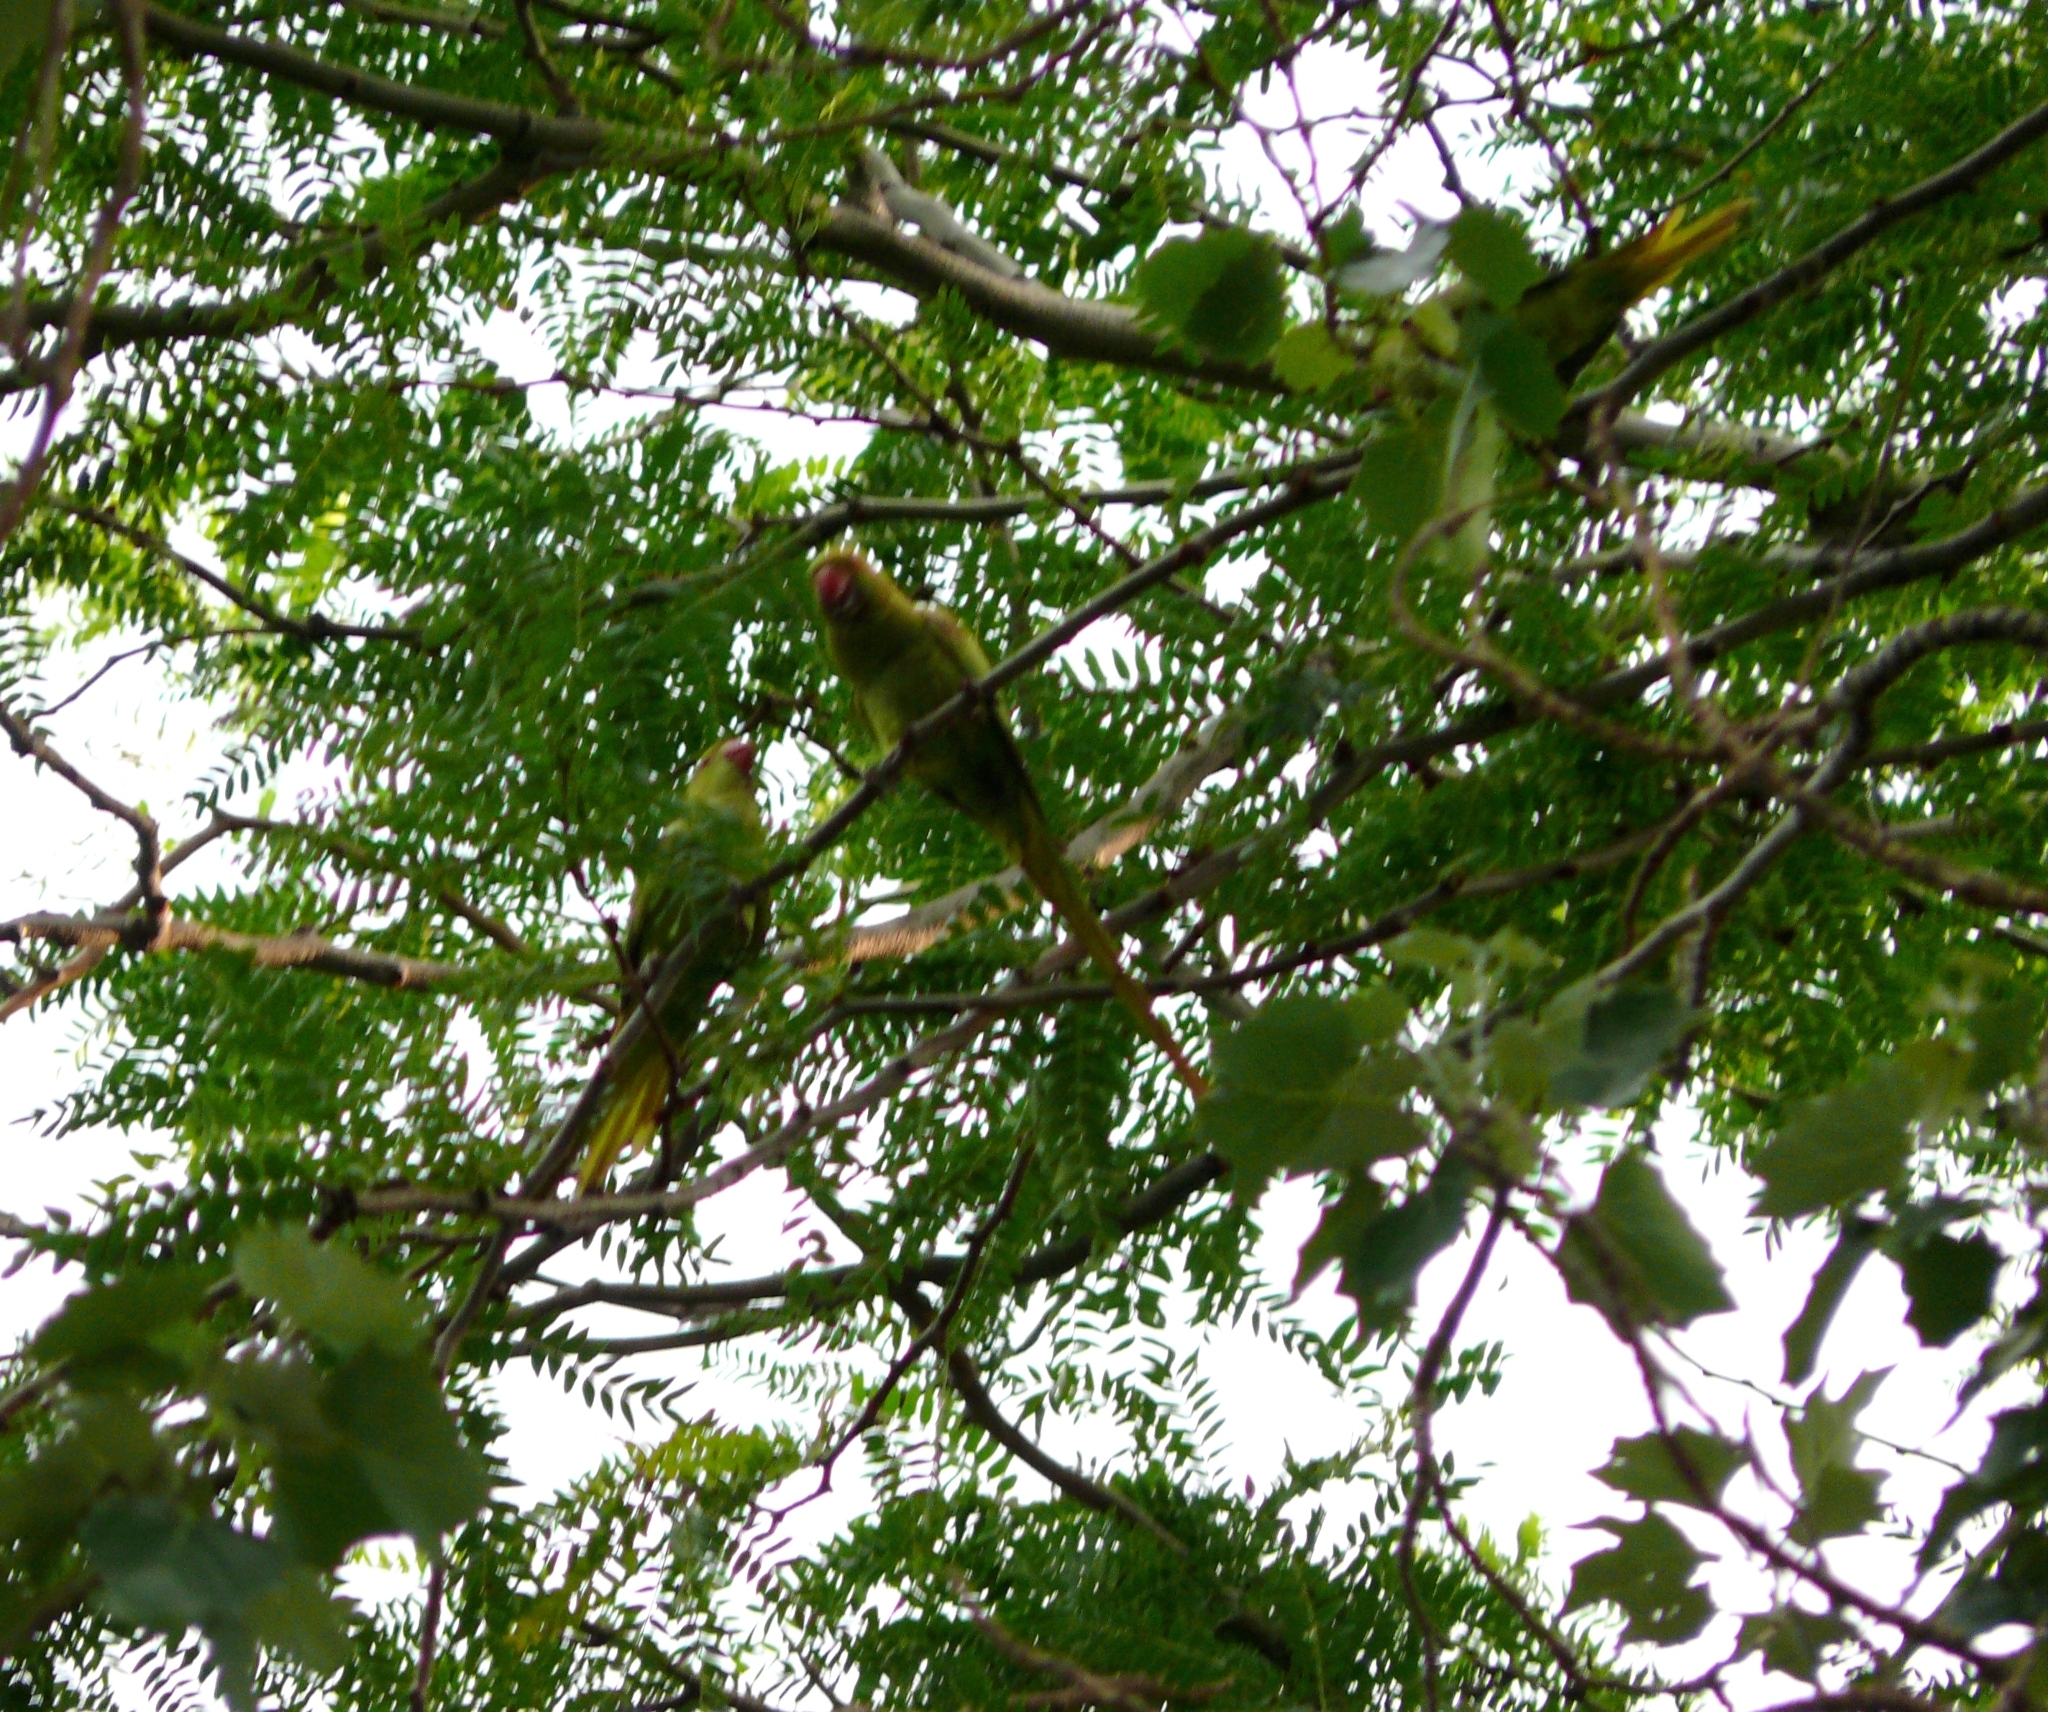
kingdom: Animalia
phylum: Chordata
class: Aves
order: Psittaciformes
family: Psittacidae
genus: Psittacula
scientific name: Psittacula krameri
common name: Rose-ringed parakeet
